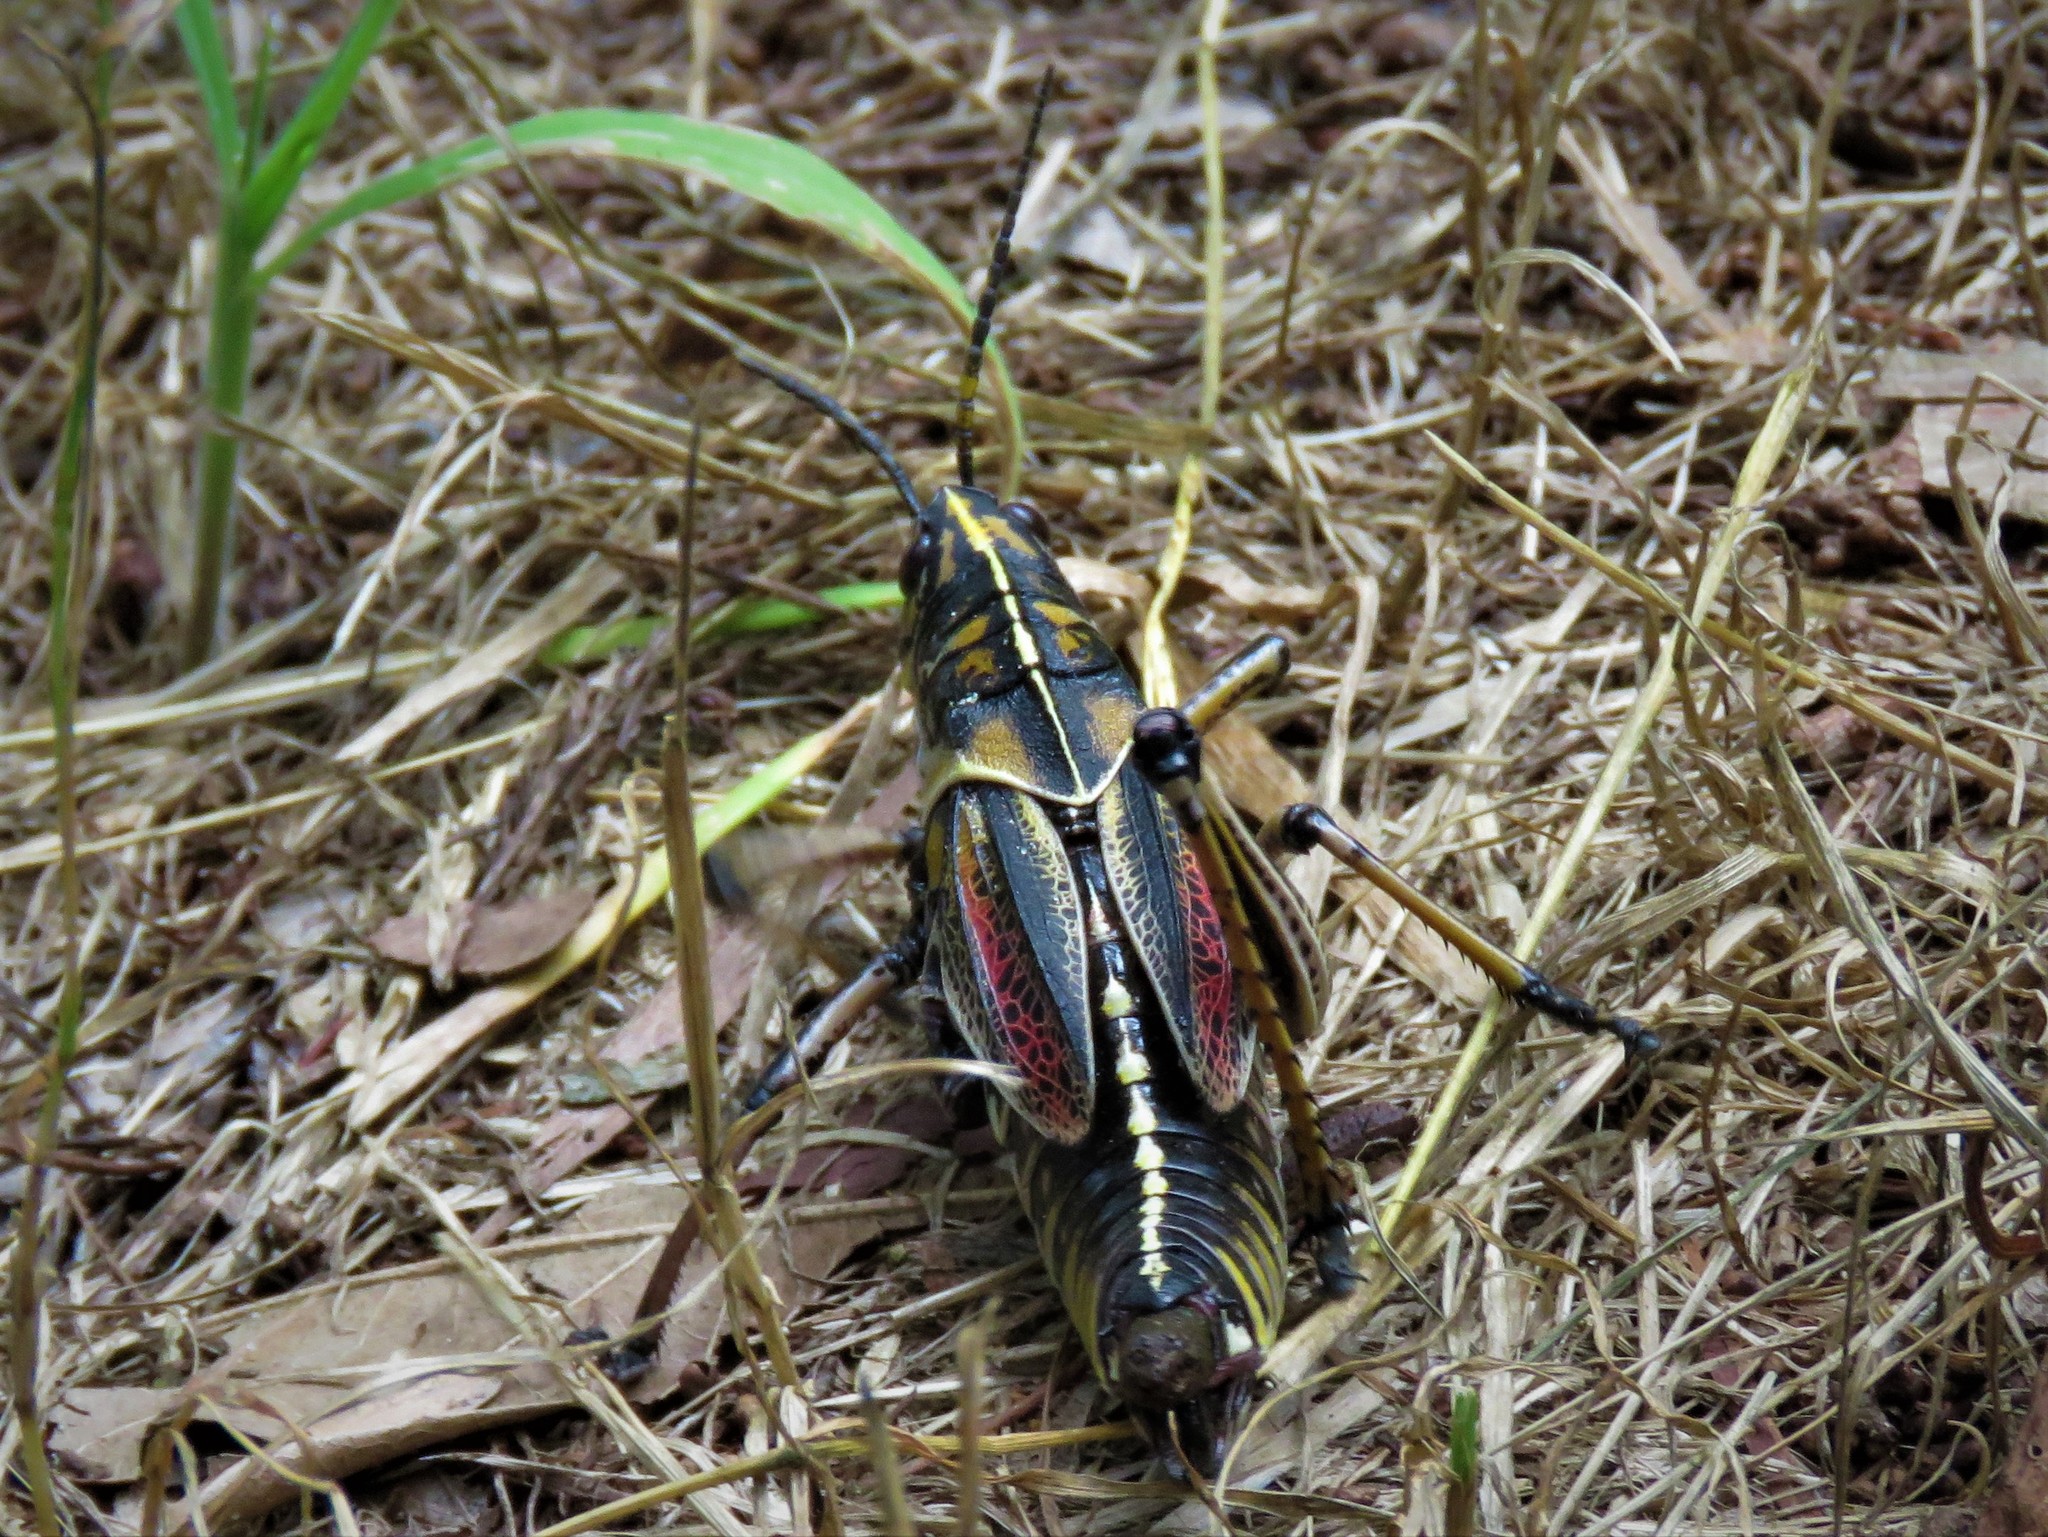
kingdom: Animalia
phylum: Arthropoda
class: Insecta
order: Orthoptera
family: Romaleidae
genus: Romalea
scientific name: Romalea microptera
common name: Eastern lubber grasshopper
